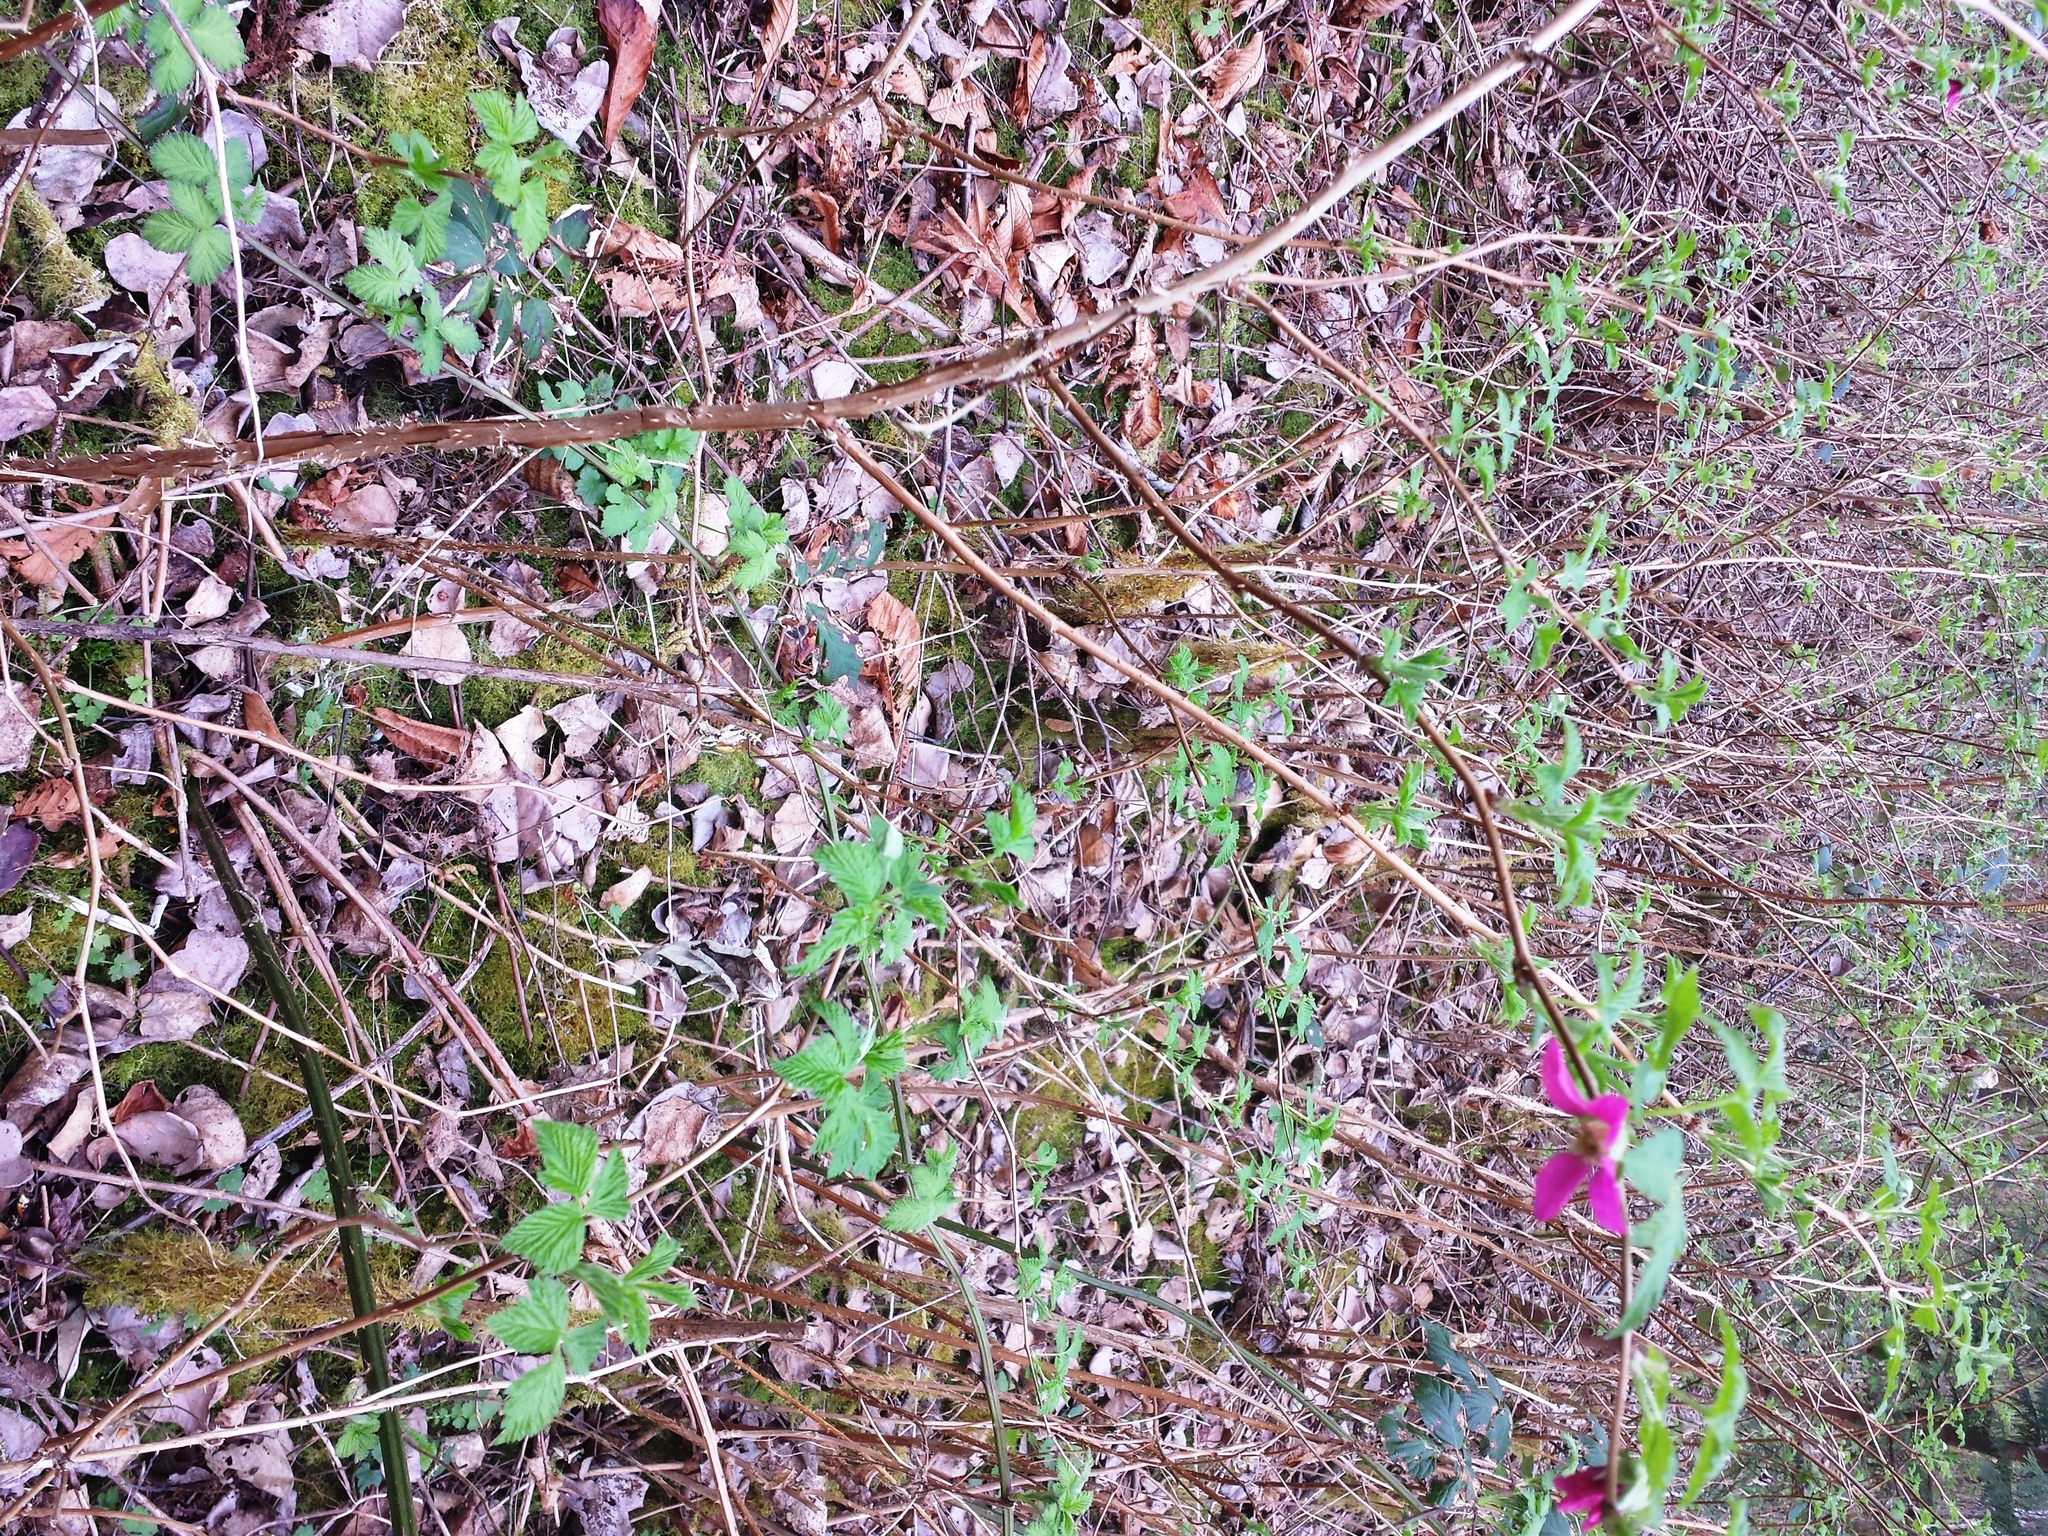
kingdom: Plantae
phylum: Tracheophyta
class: Magnoliopsida
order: Rosales
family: Rosaceae
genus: Rubus
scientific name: Rubus spectabilis
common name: Salmonberry
